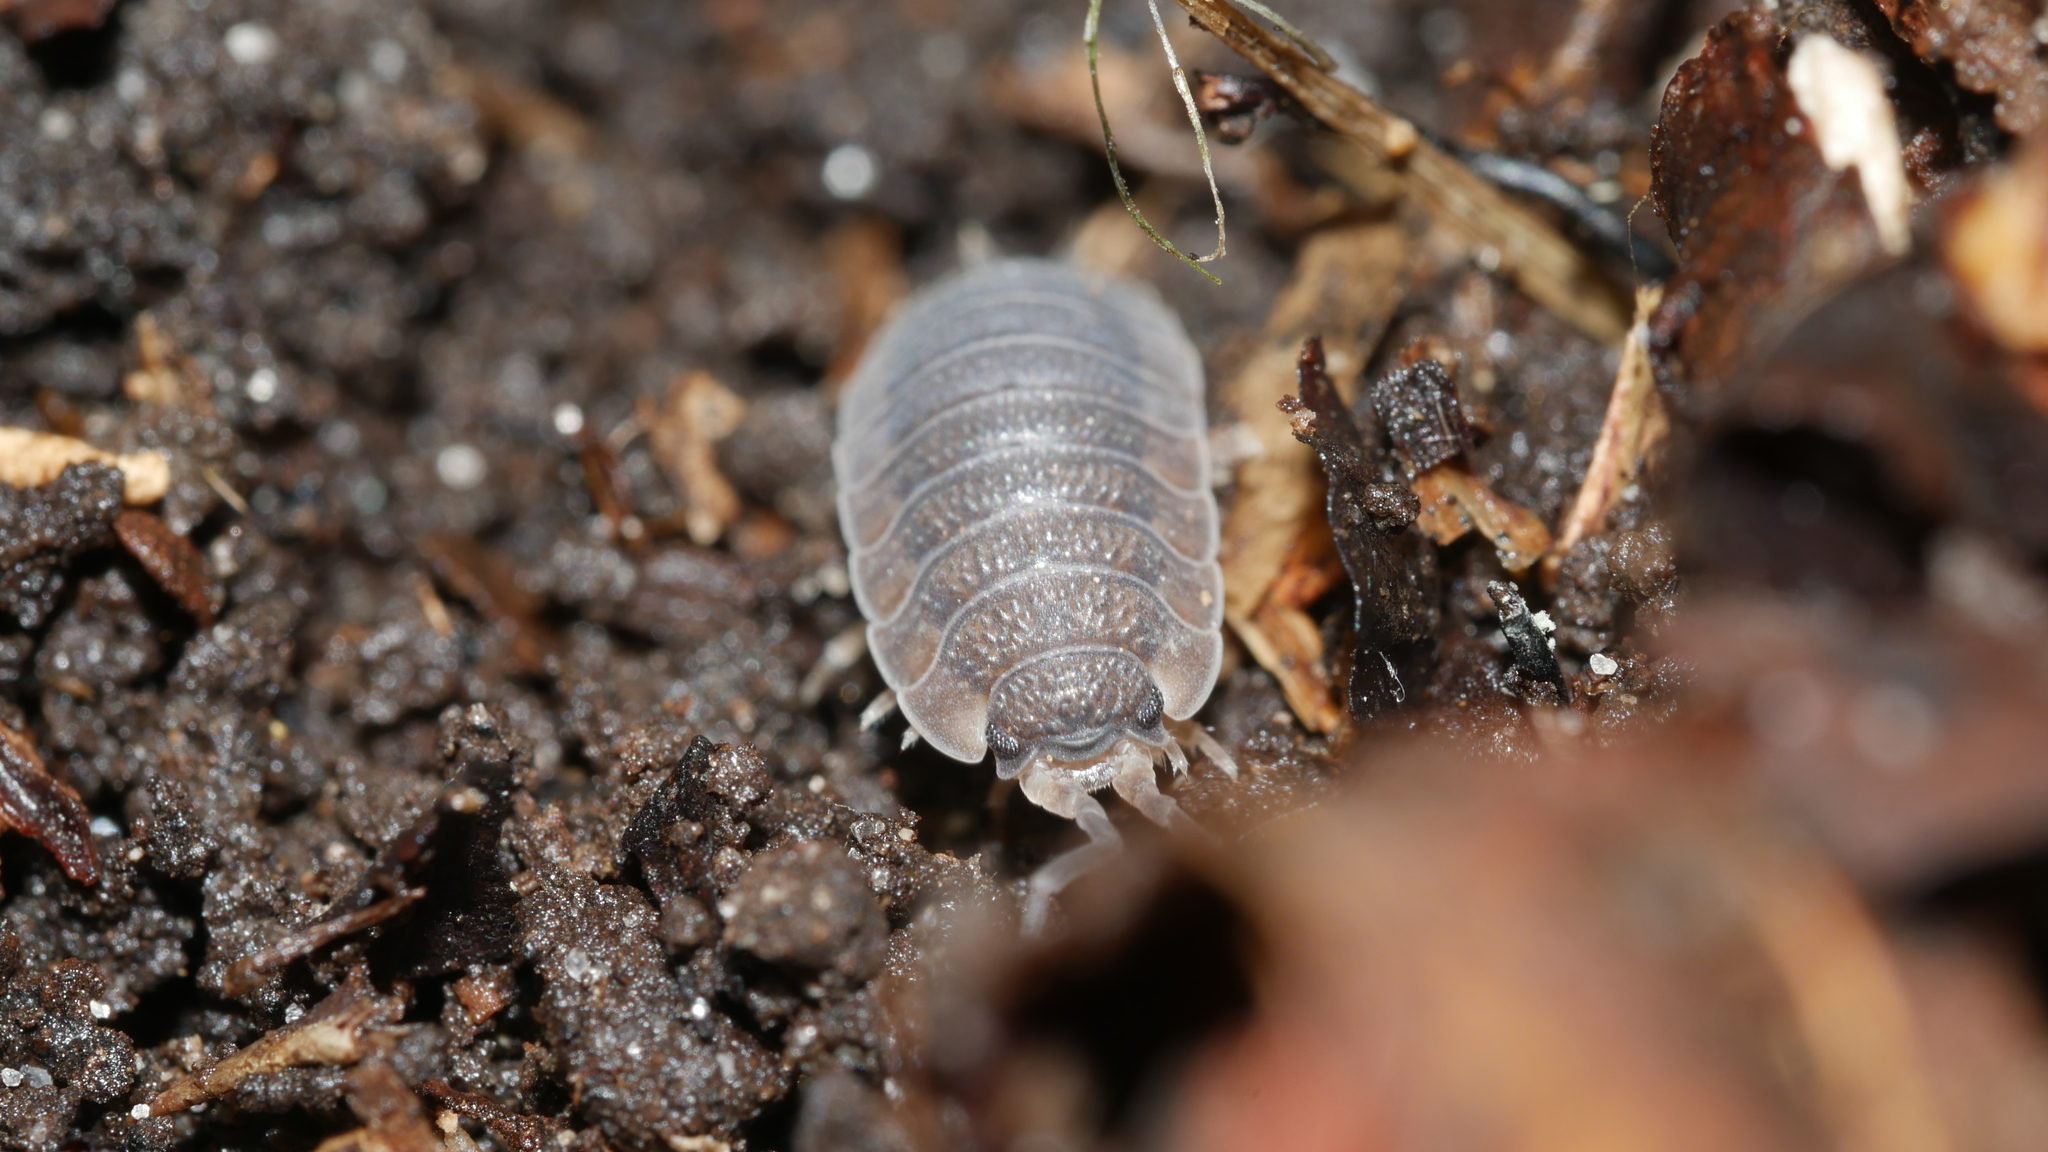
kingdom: Animalia
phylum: Arthropoda
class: Malacostraca
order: Isopoda
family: Porcellionidae
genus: Porcellio
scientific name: Porcellio scaber
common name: Common rough woodlouse
